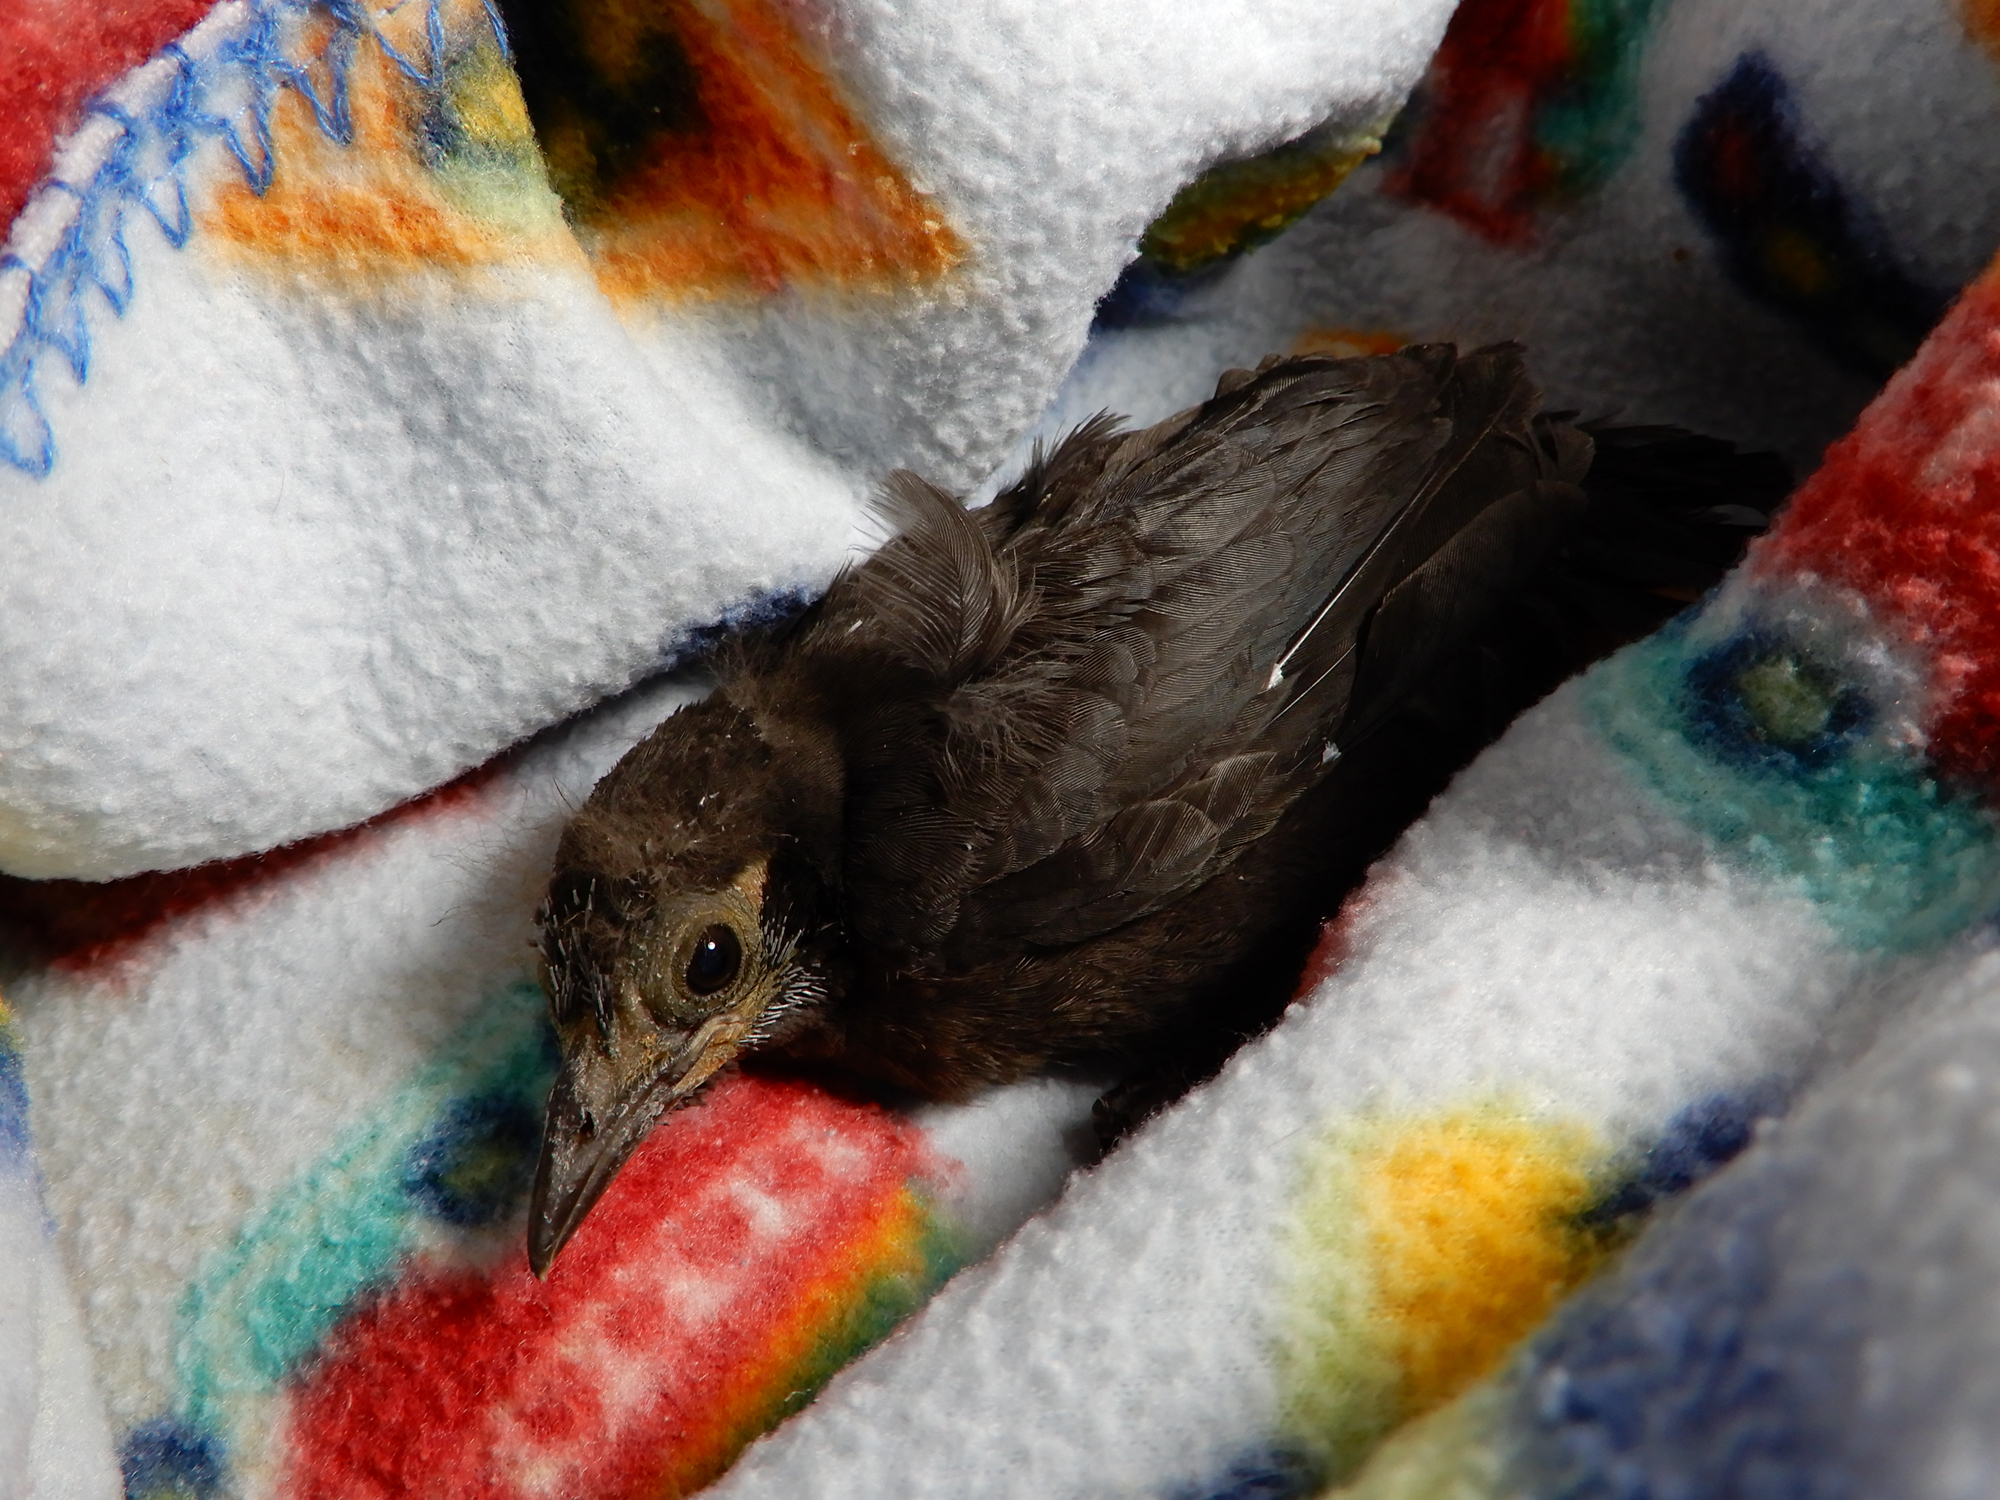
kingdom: Animalia
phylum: Chordata
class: Aves
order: Passeriformes
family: Icteridae
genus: Quiscalus
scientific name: Quiscalus quiscula
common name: Common grackle
